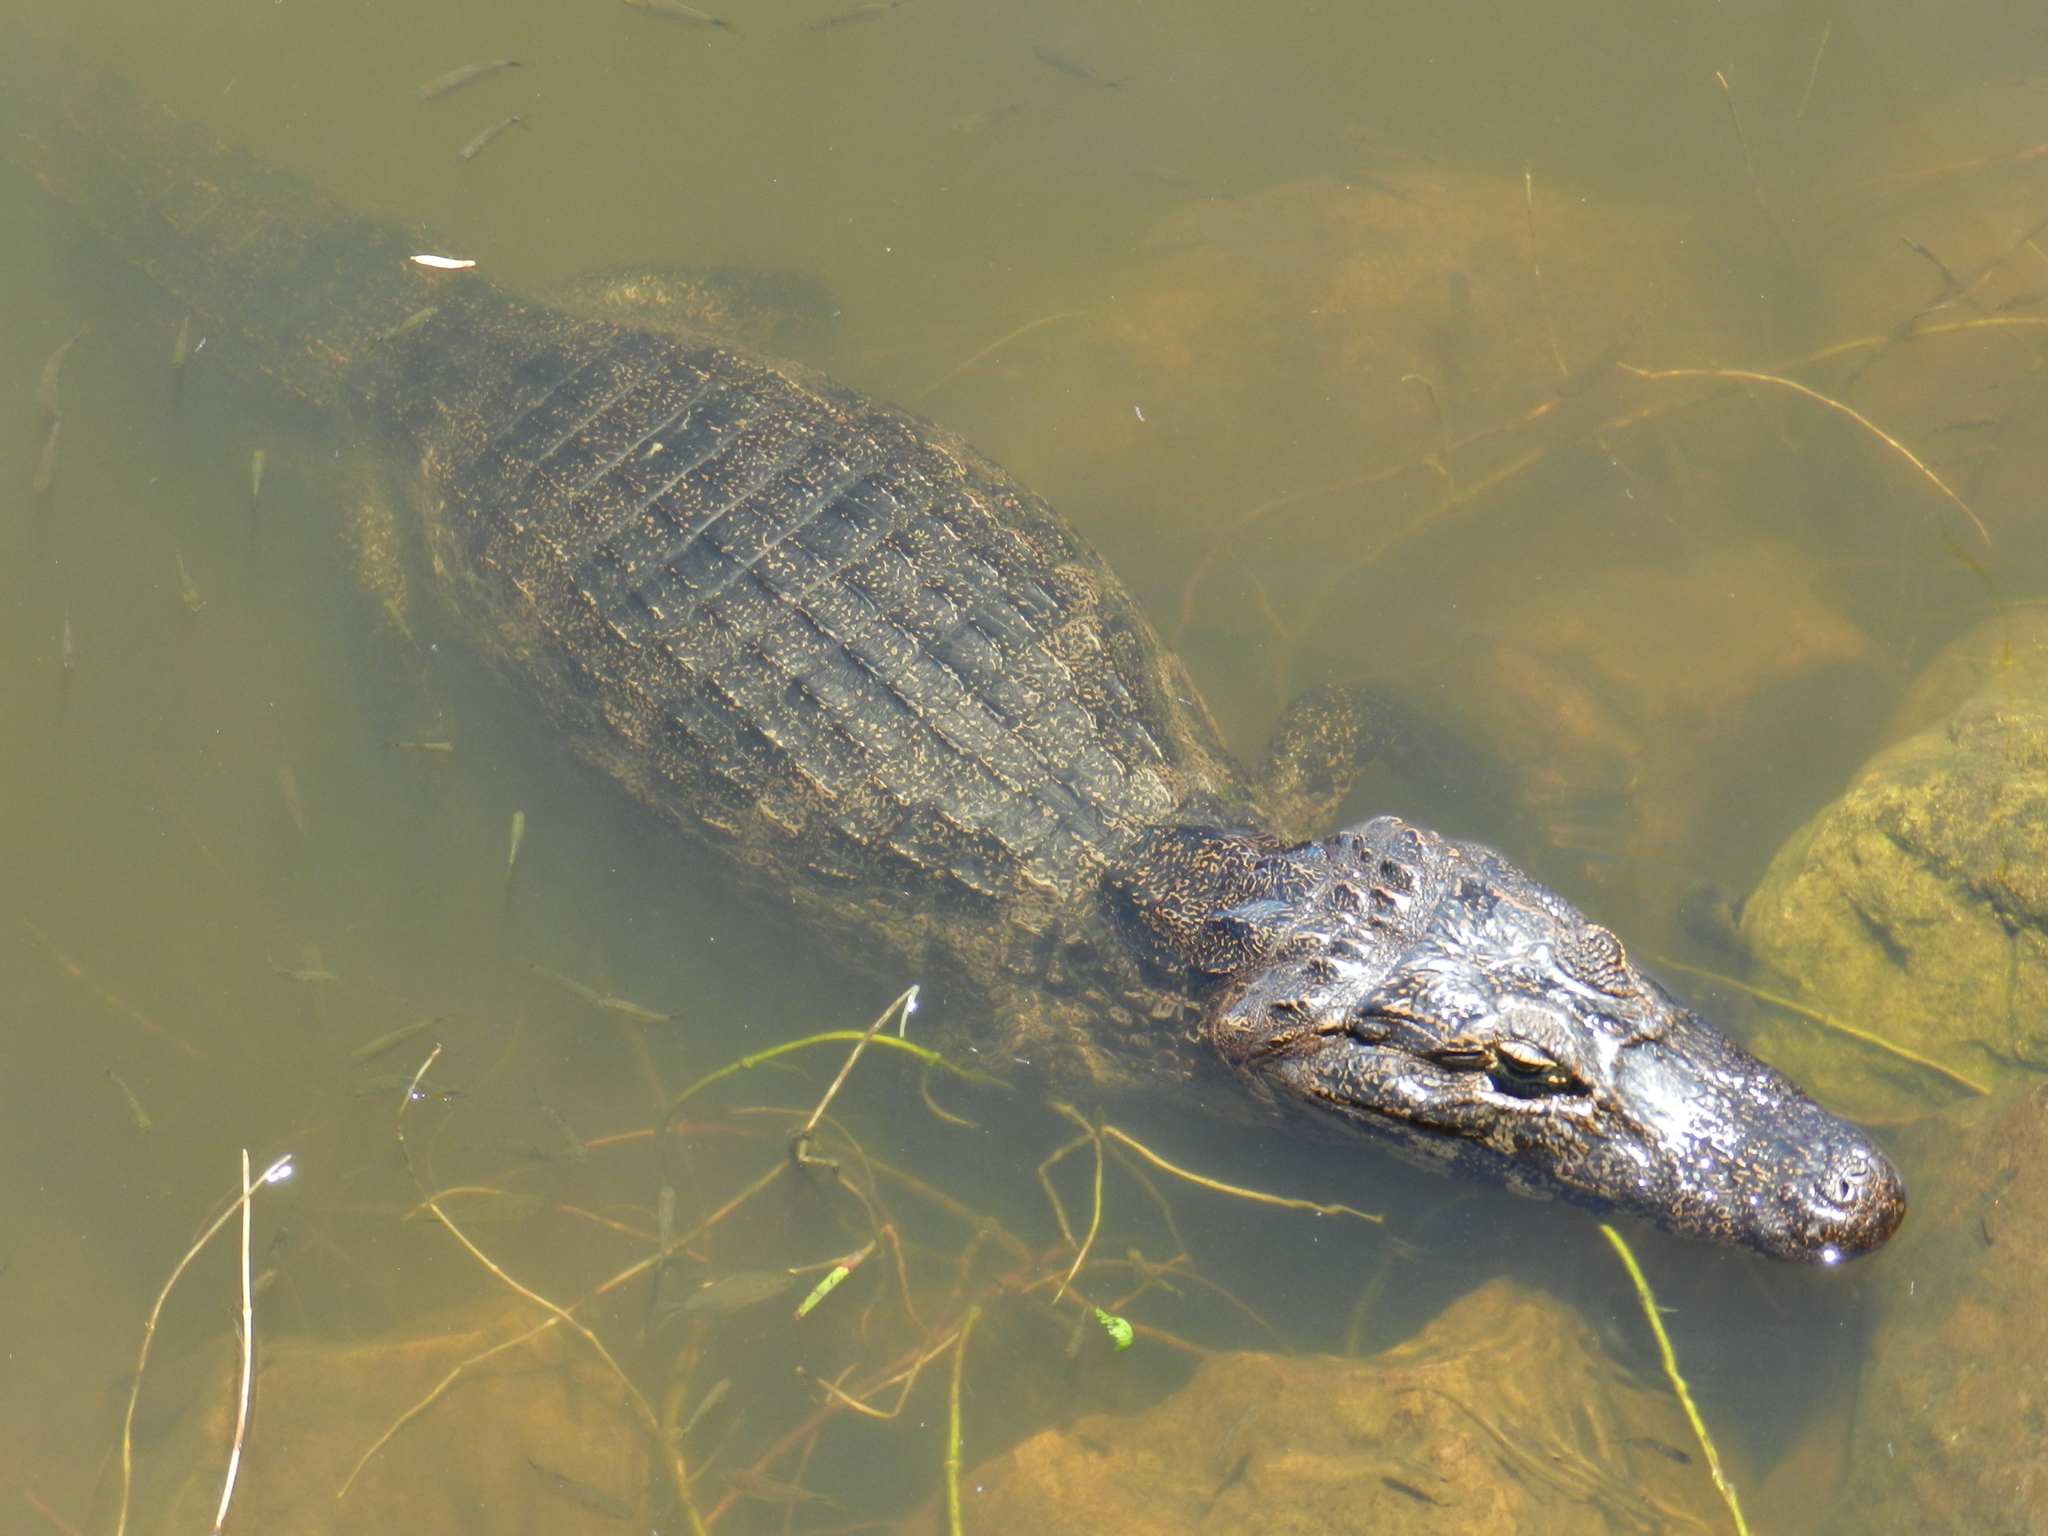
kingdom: Animalia
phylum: Chordata
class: Crocodylia
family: Alligatoridae
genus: Caiman
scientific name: Caiman yacare
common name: Yacare caiman
